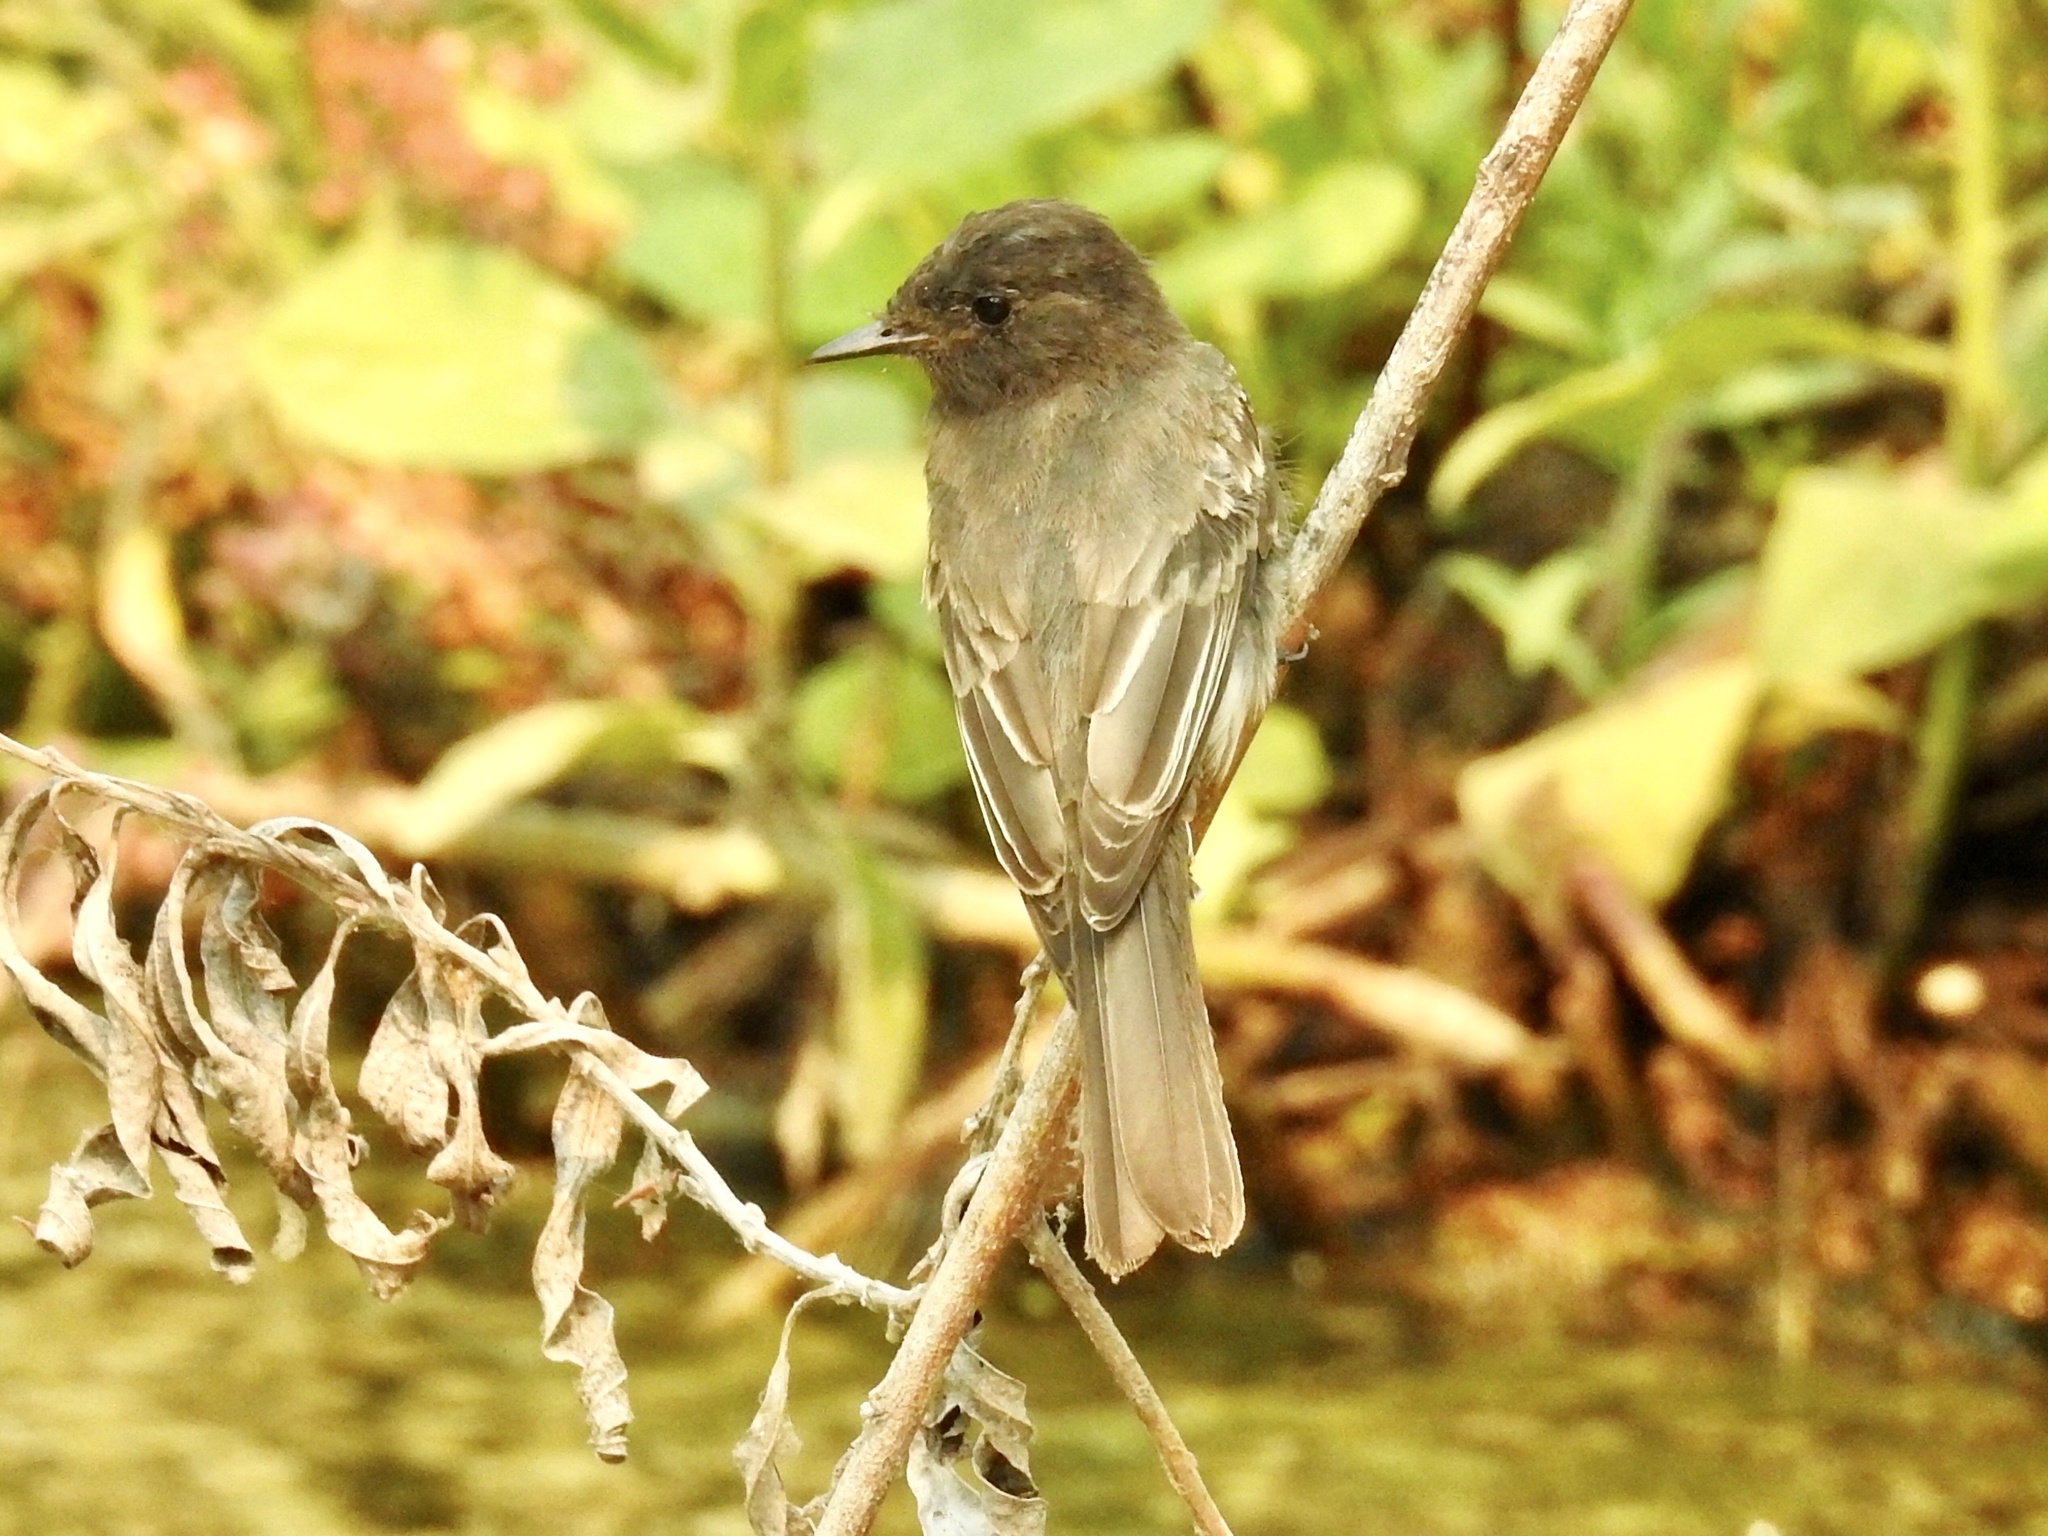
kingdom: Animalia
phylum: Chordata
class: Aves
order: Passeriformes
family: Tyrannidae
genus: Sayornis
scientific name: Sayornis nigricans
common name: Black phoebe
